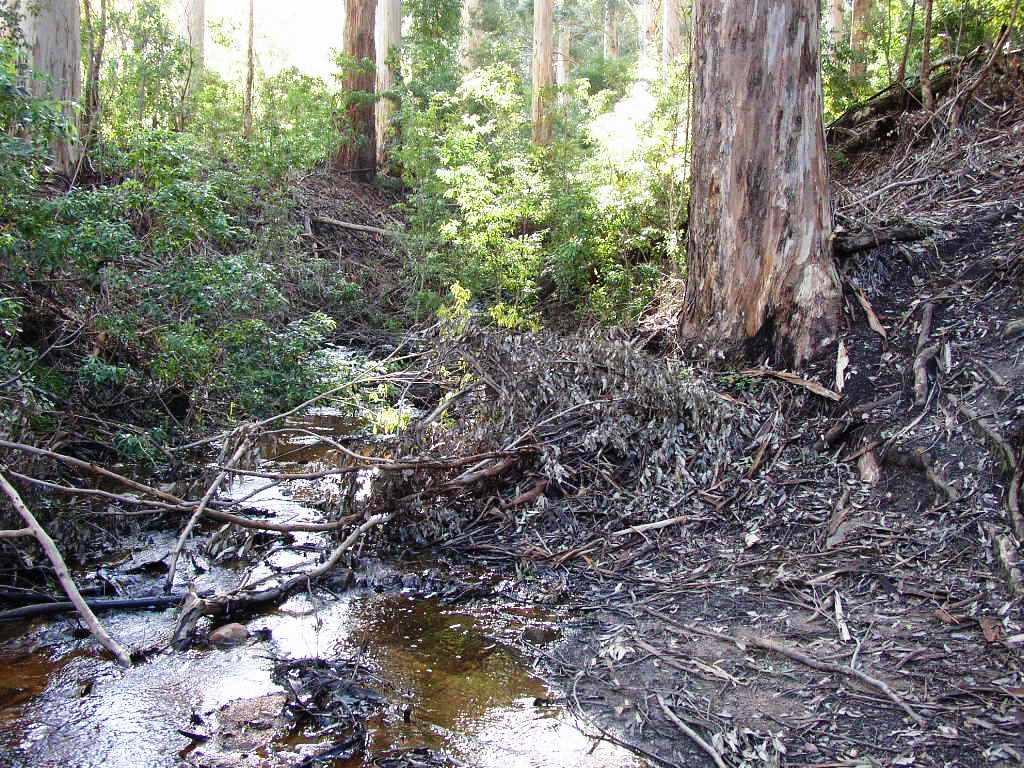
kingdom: Plantae
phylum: Tracheophyta
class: Magnoliopsida
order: Fabales
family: Fabaceae
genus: Acacia
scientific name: Acacia melanoxylon
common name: Blackwood
